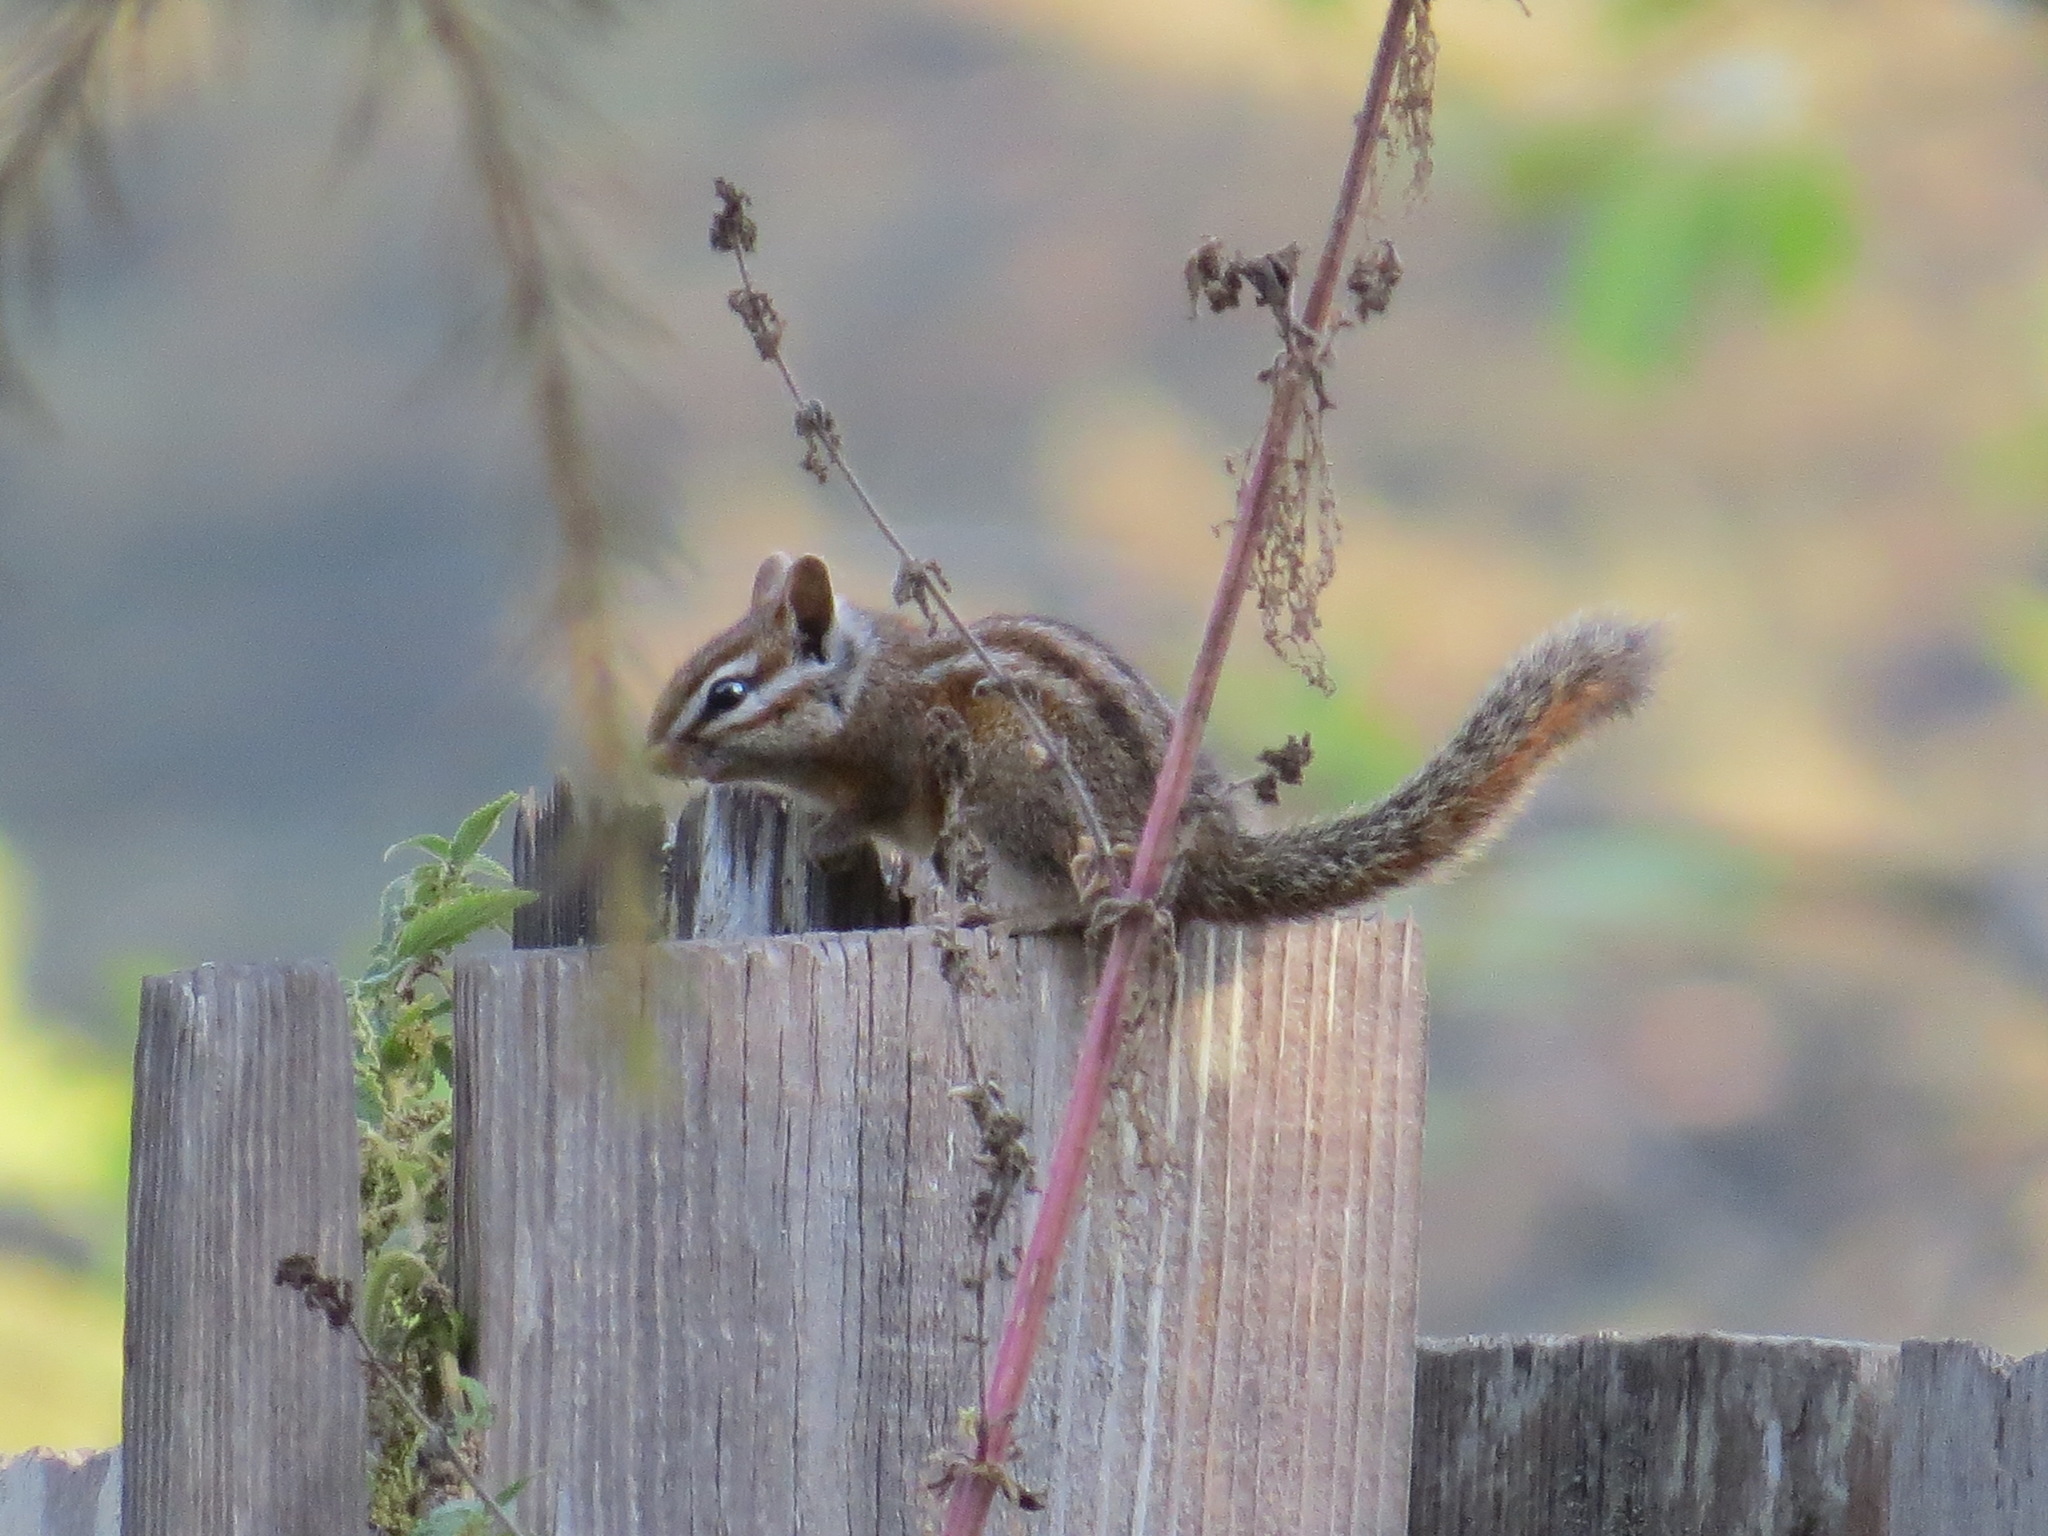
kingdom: Animalia
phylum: Chordata
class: Mammalia
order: Rodentia
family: Sciuridae
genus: Tamias
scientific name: Tamias merriami
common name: Merriam's chipmunk
